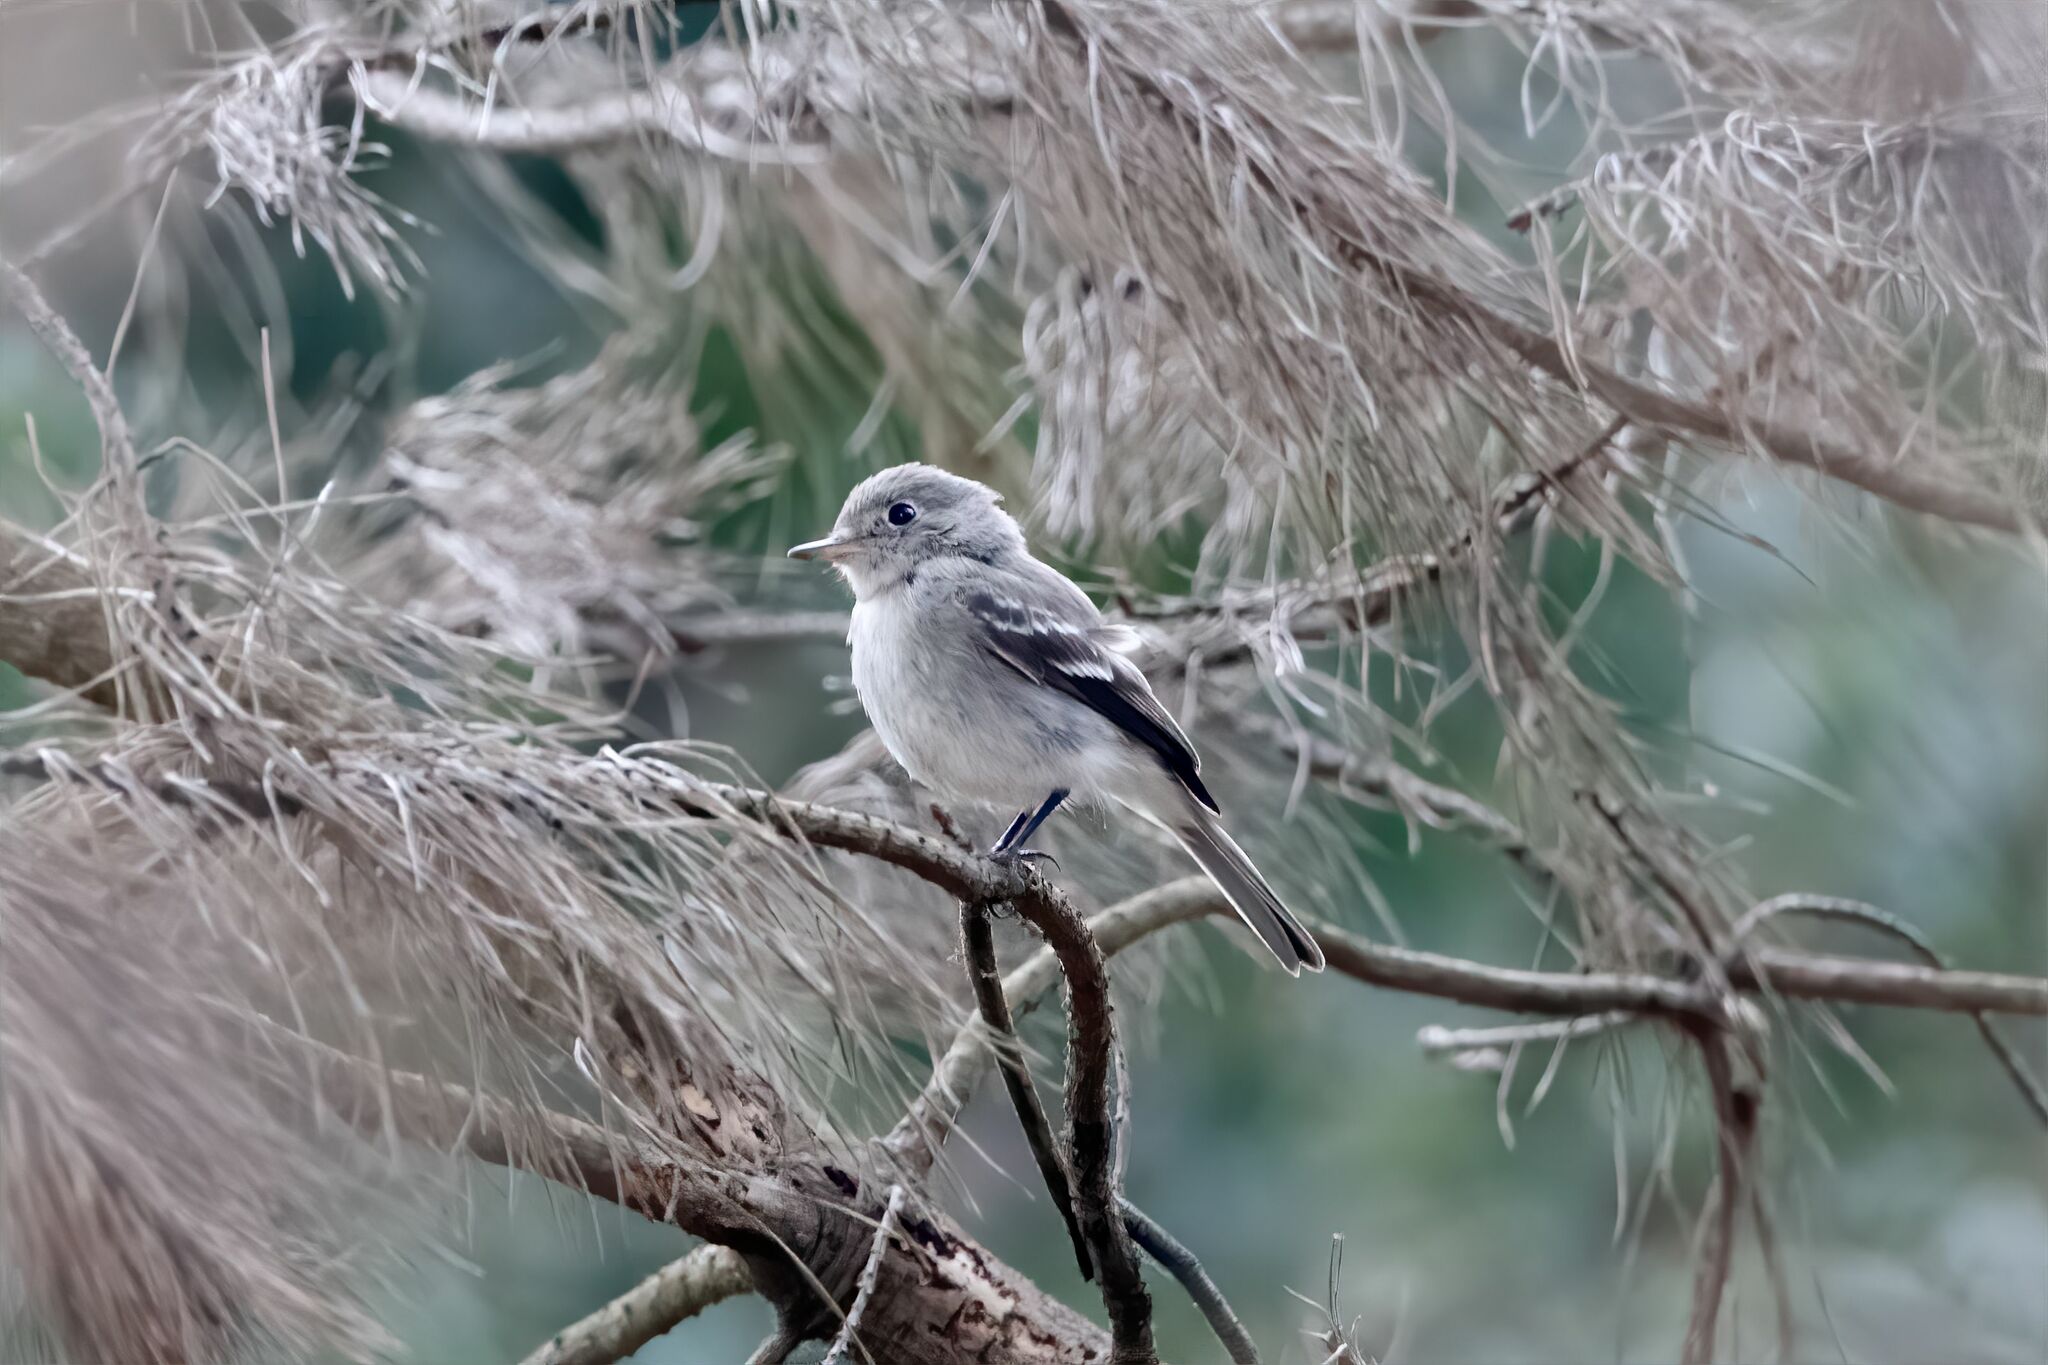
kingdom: Animalia
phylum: Chordata
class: Aves
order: Passeriformes
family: Tyrannidae
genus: Empidonax
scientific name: Empidonax wrightii
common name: Gray flycatcher
